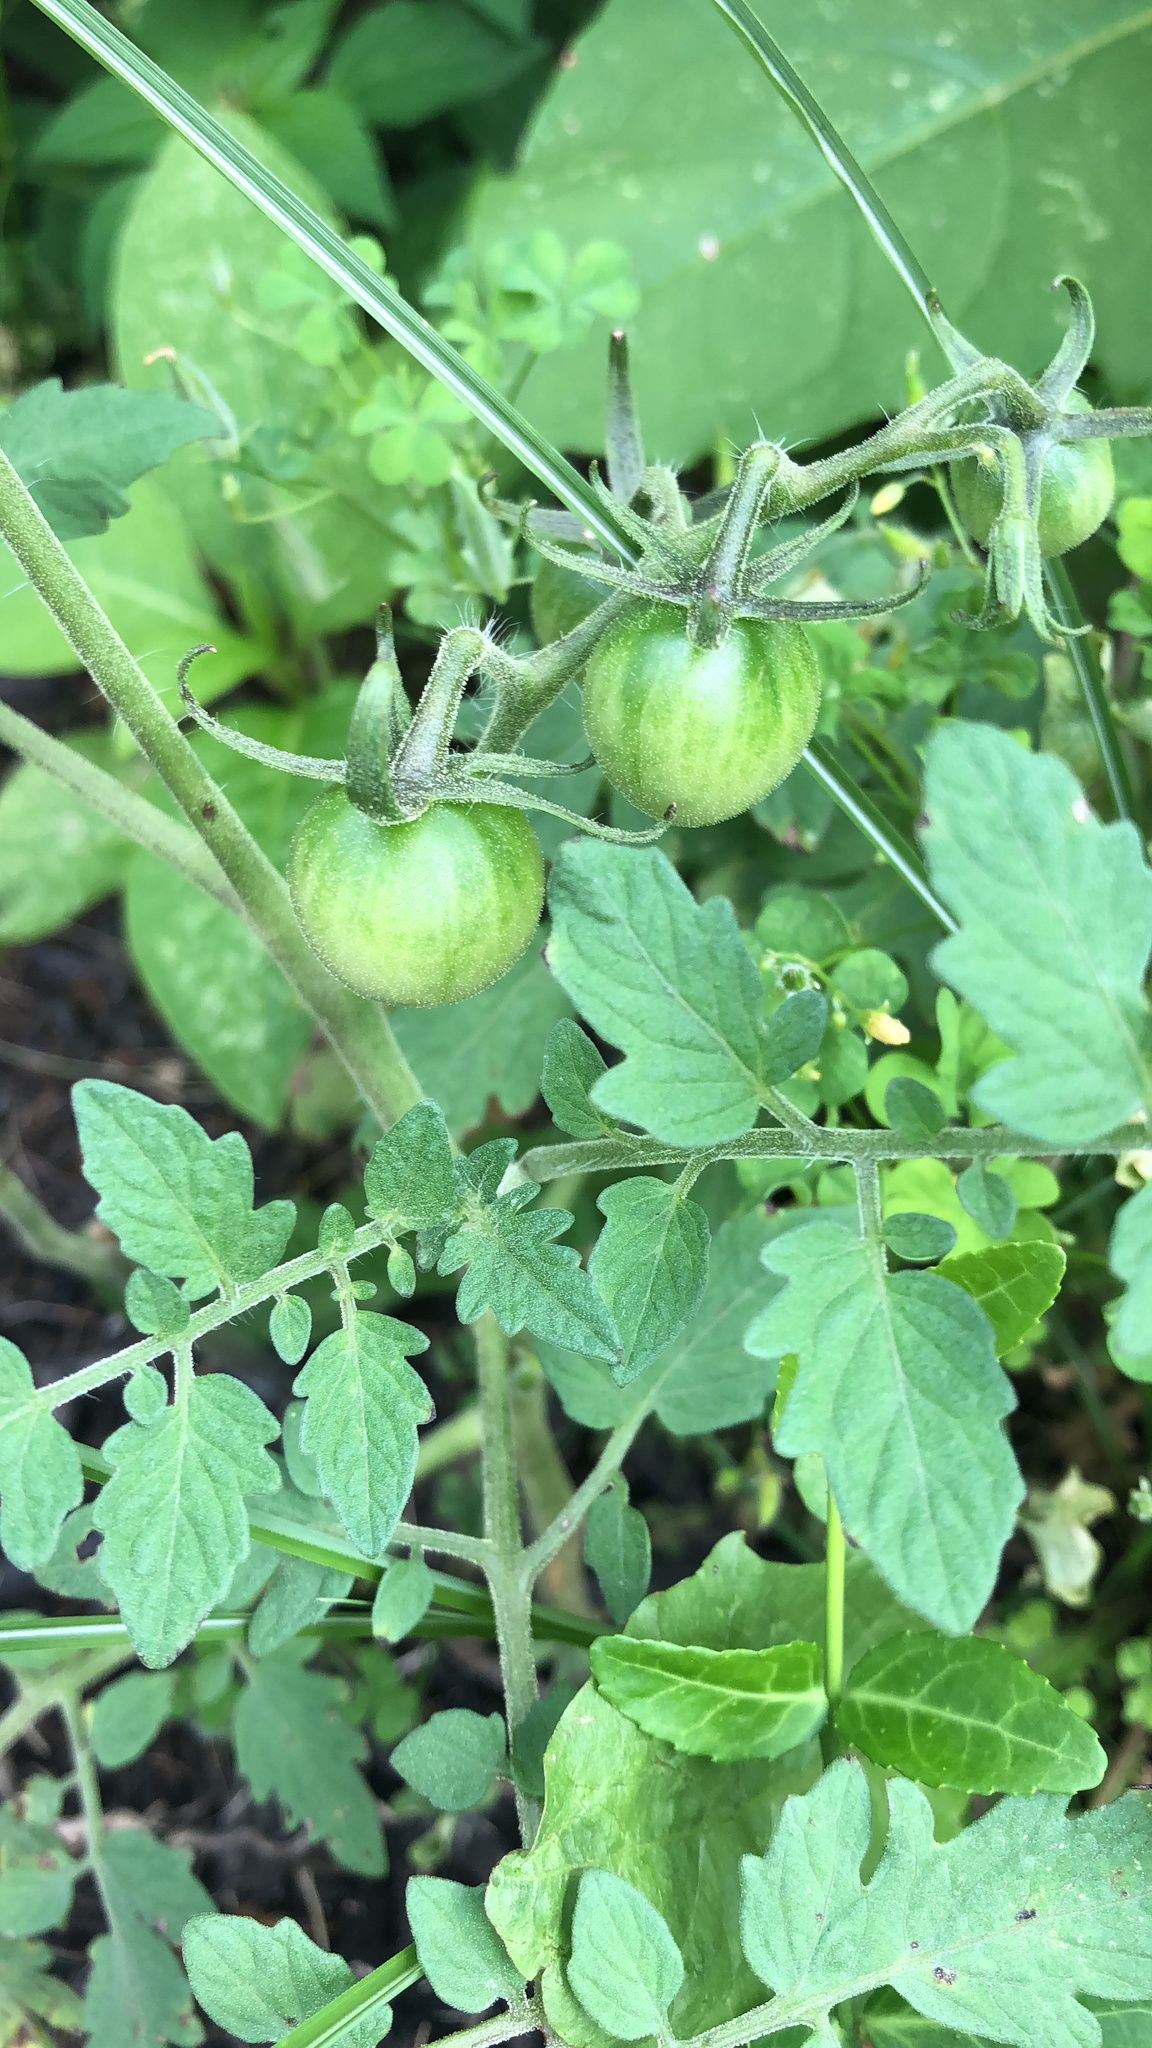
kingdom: Plantae
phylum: Tracheophyta
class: Magnoliopsida
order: Solanales
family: Solanaceae
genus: Solanum
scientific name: Solanum lycopersicum
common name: Garden tomato
